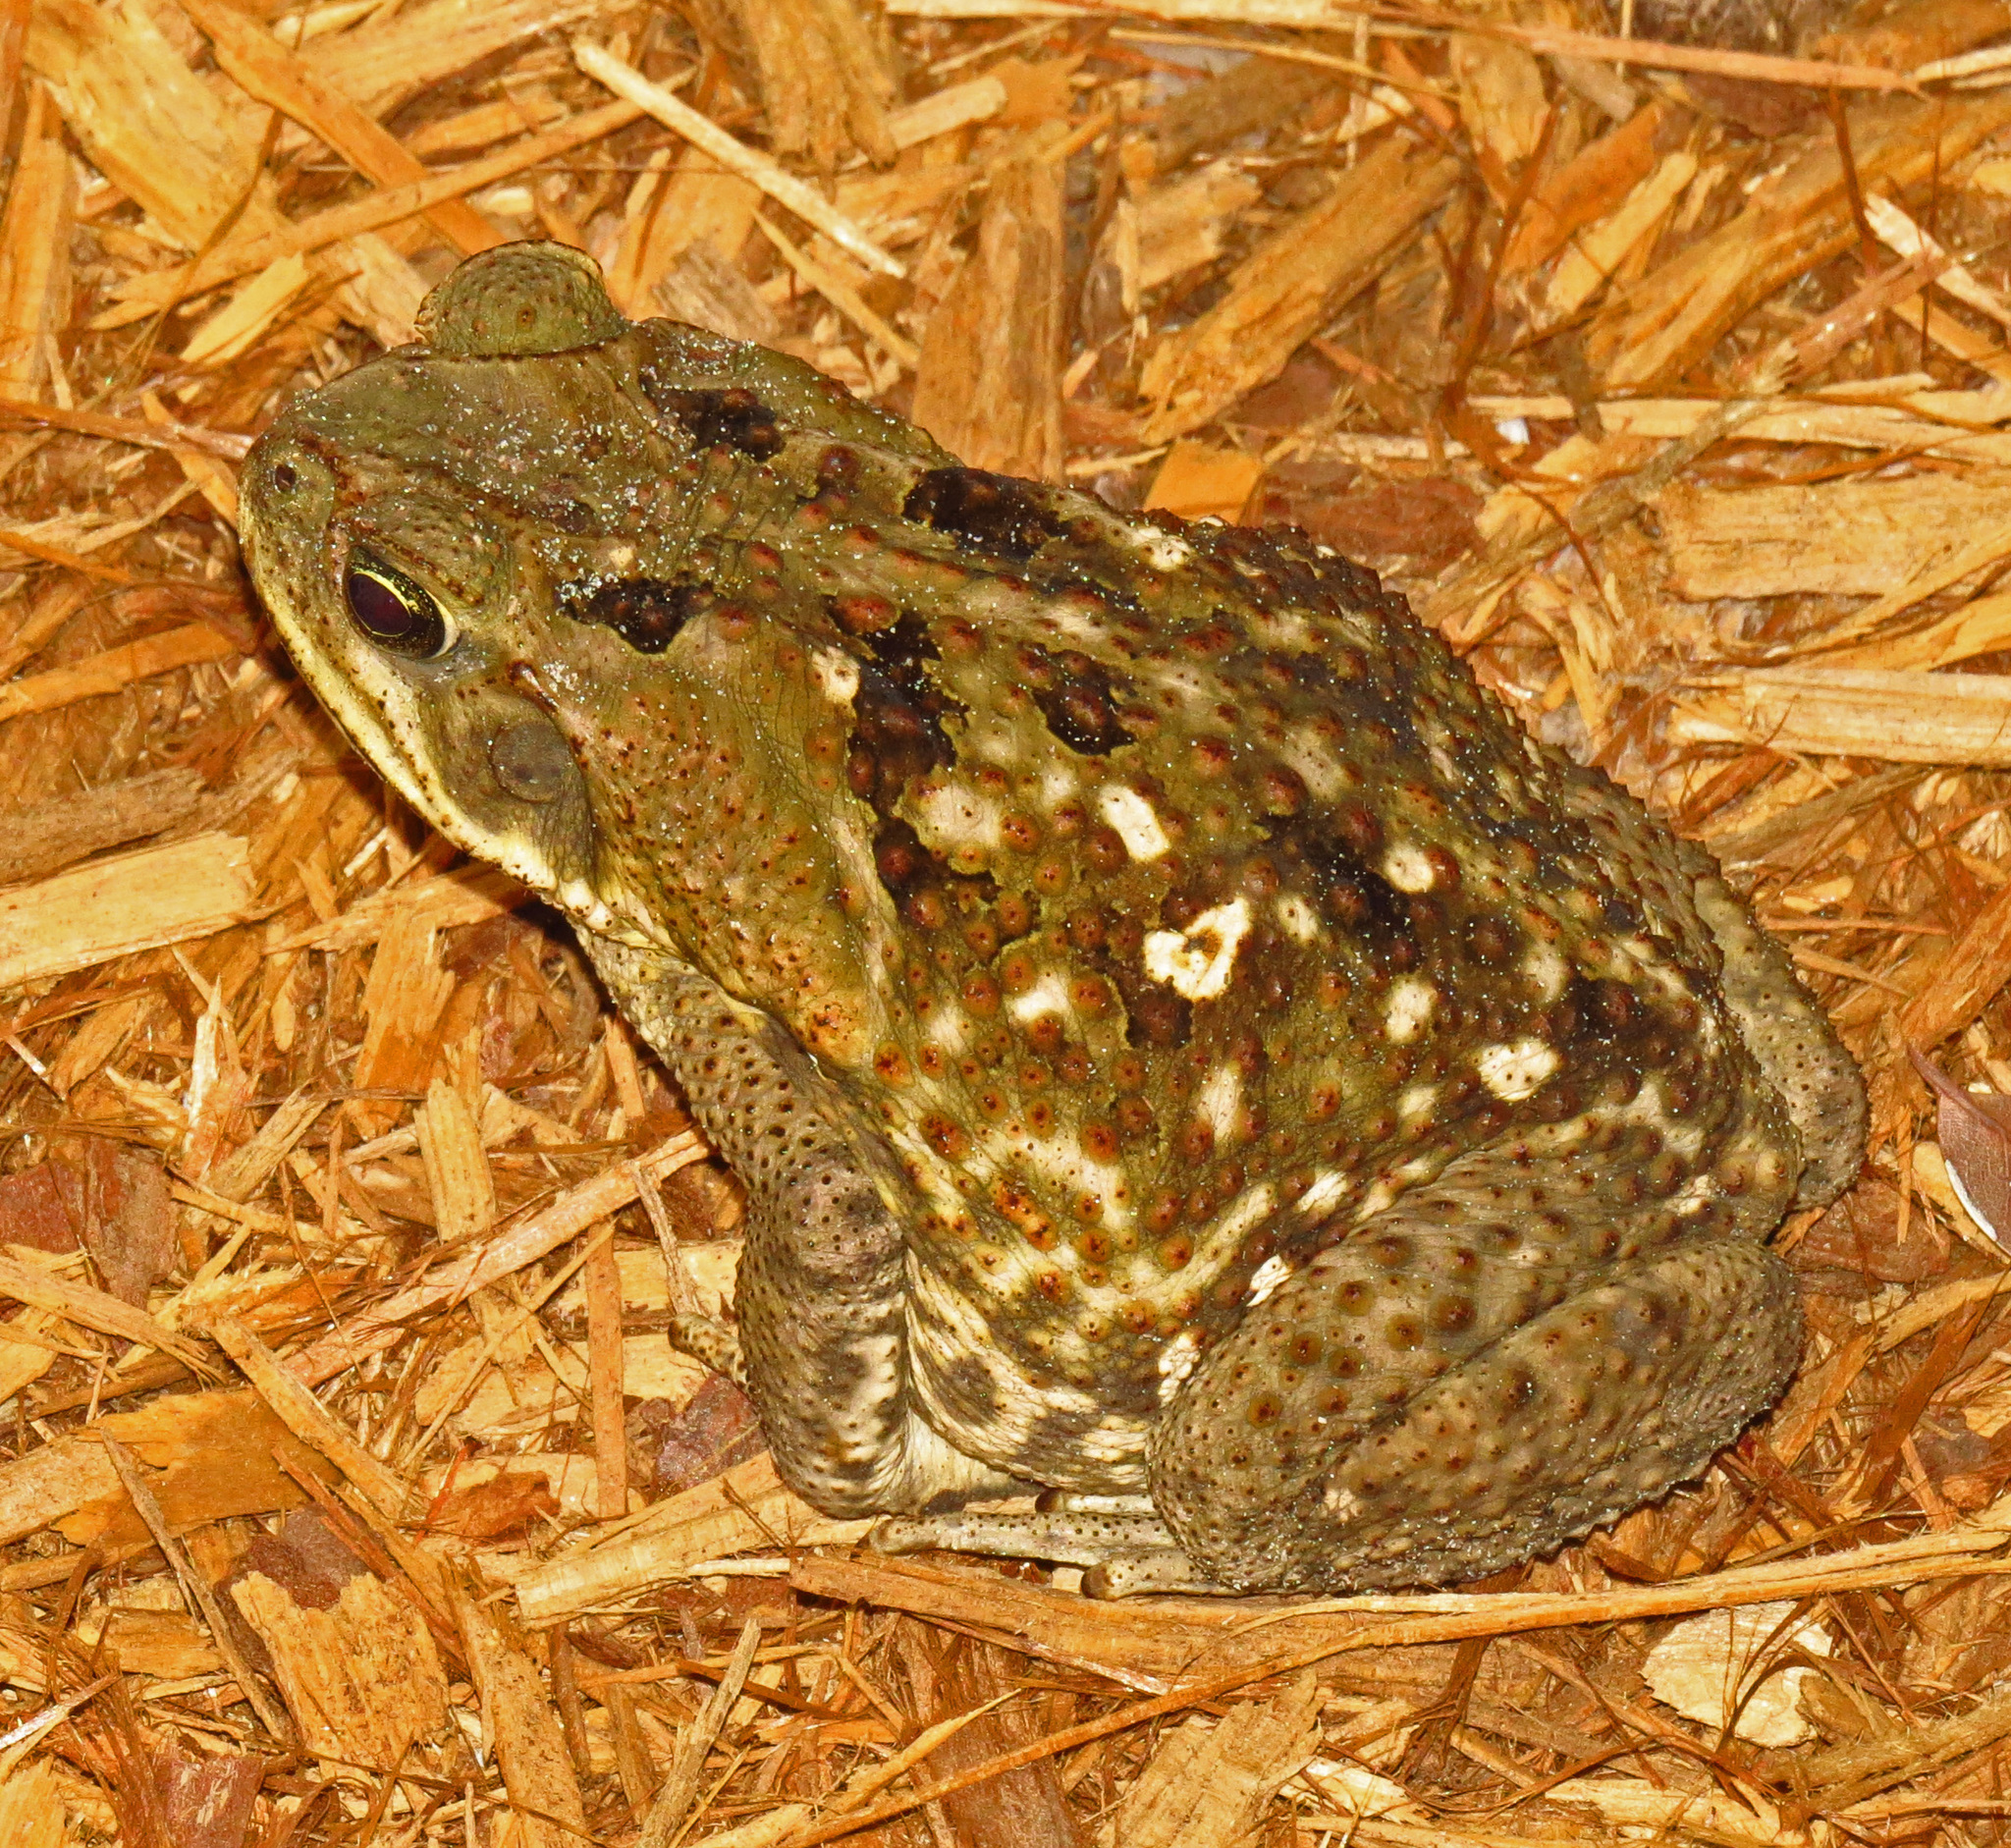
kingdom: Animalia
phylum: Chordata
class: Amphibia
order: Anura
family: Bufonidae
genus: Rhinella
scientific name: Rhinella marina
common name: Cane toad
